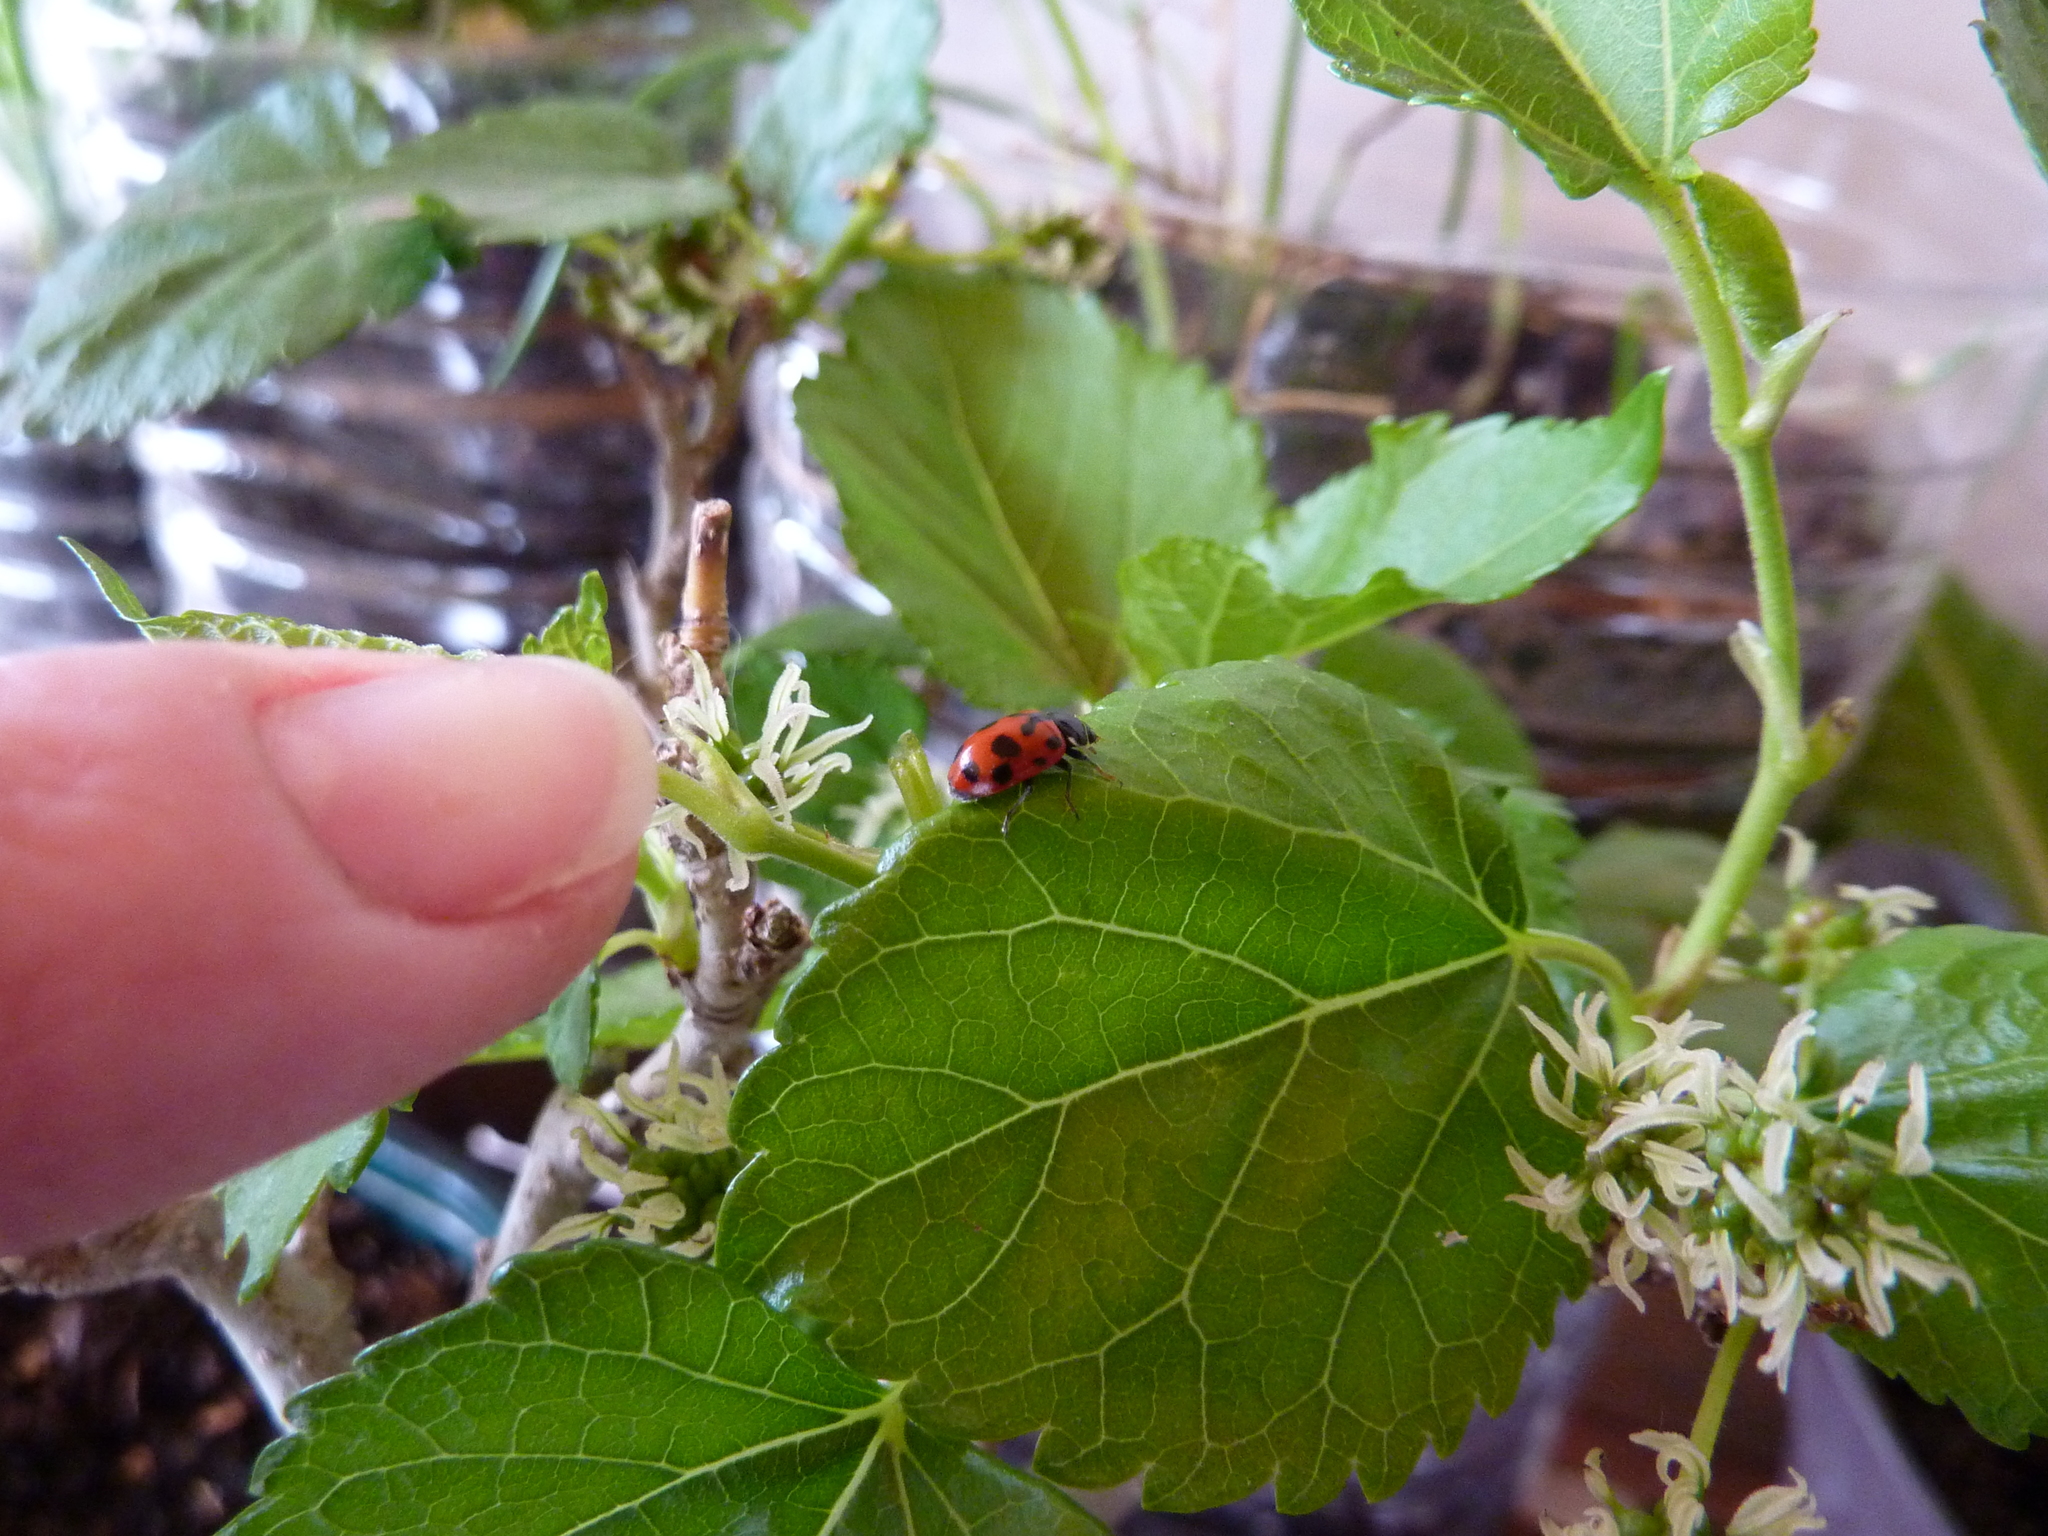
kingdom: Animalia
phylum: Arthropoda
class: Insecta
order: Coleoptera
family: Coccinellidae
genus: Hippodamia
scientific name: Hippodamia variegata
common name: Ladybird beetle
